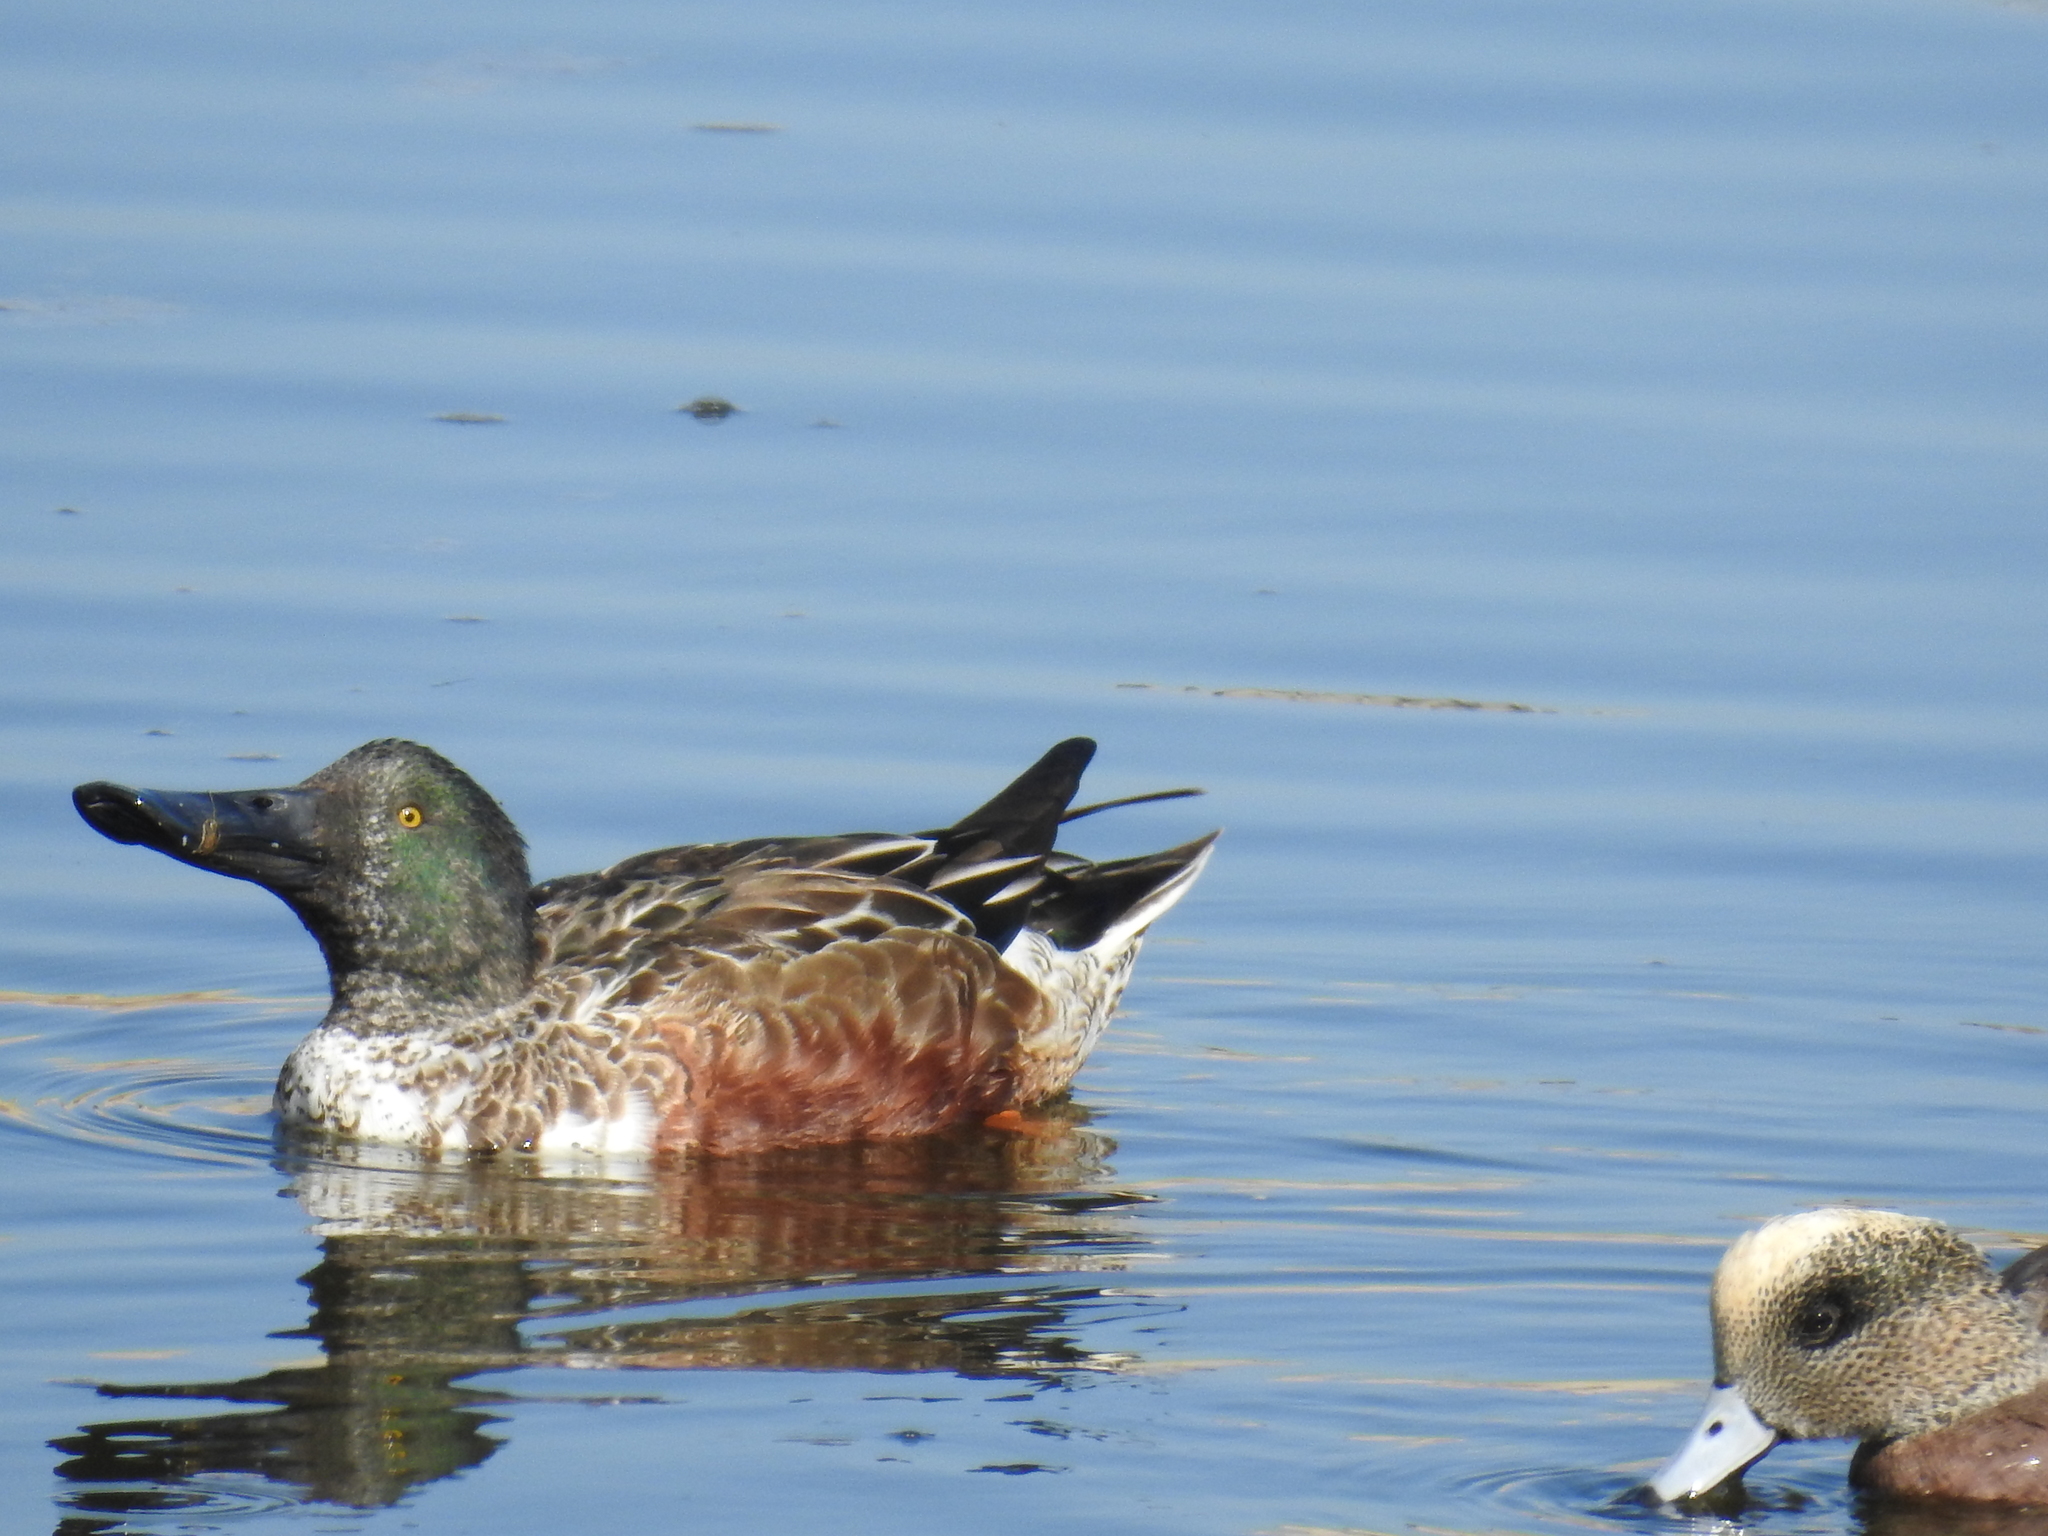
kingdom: Animalia
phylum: Chordata
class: Aves
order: Anseriformes
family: Anatidae
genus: Spatula
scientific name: Spatula clypeata
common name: Northern shoveler
